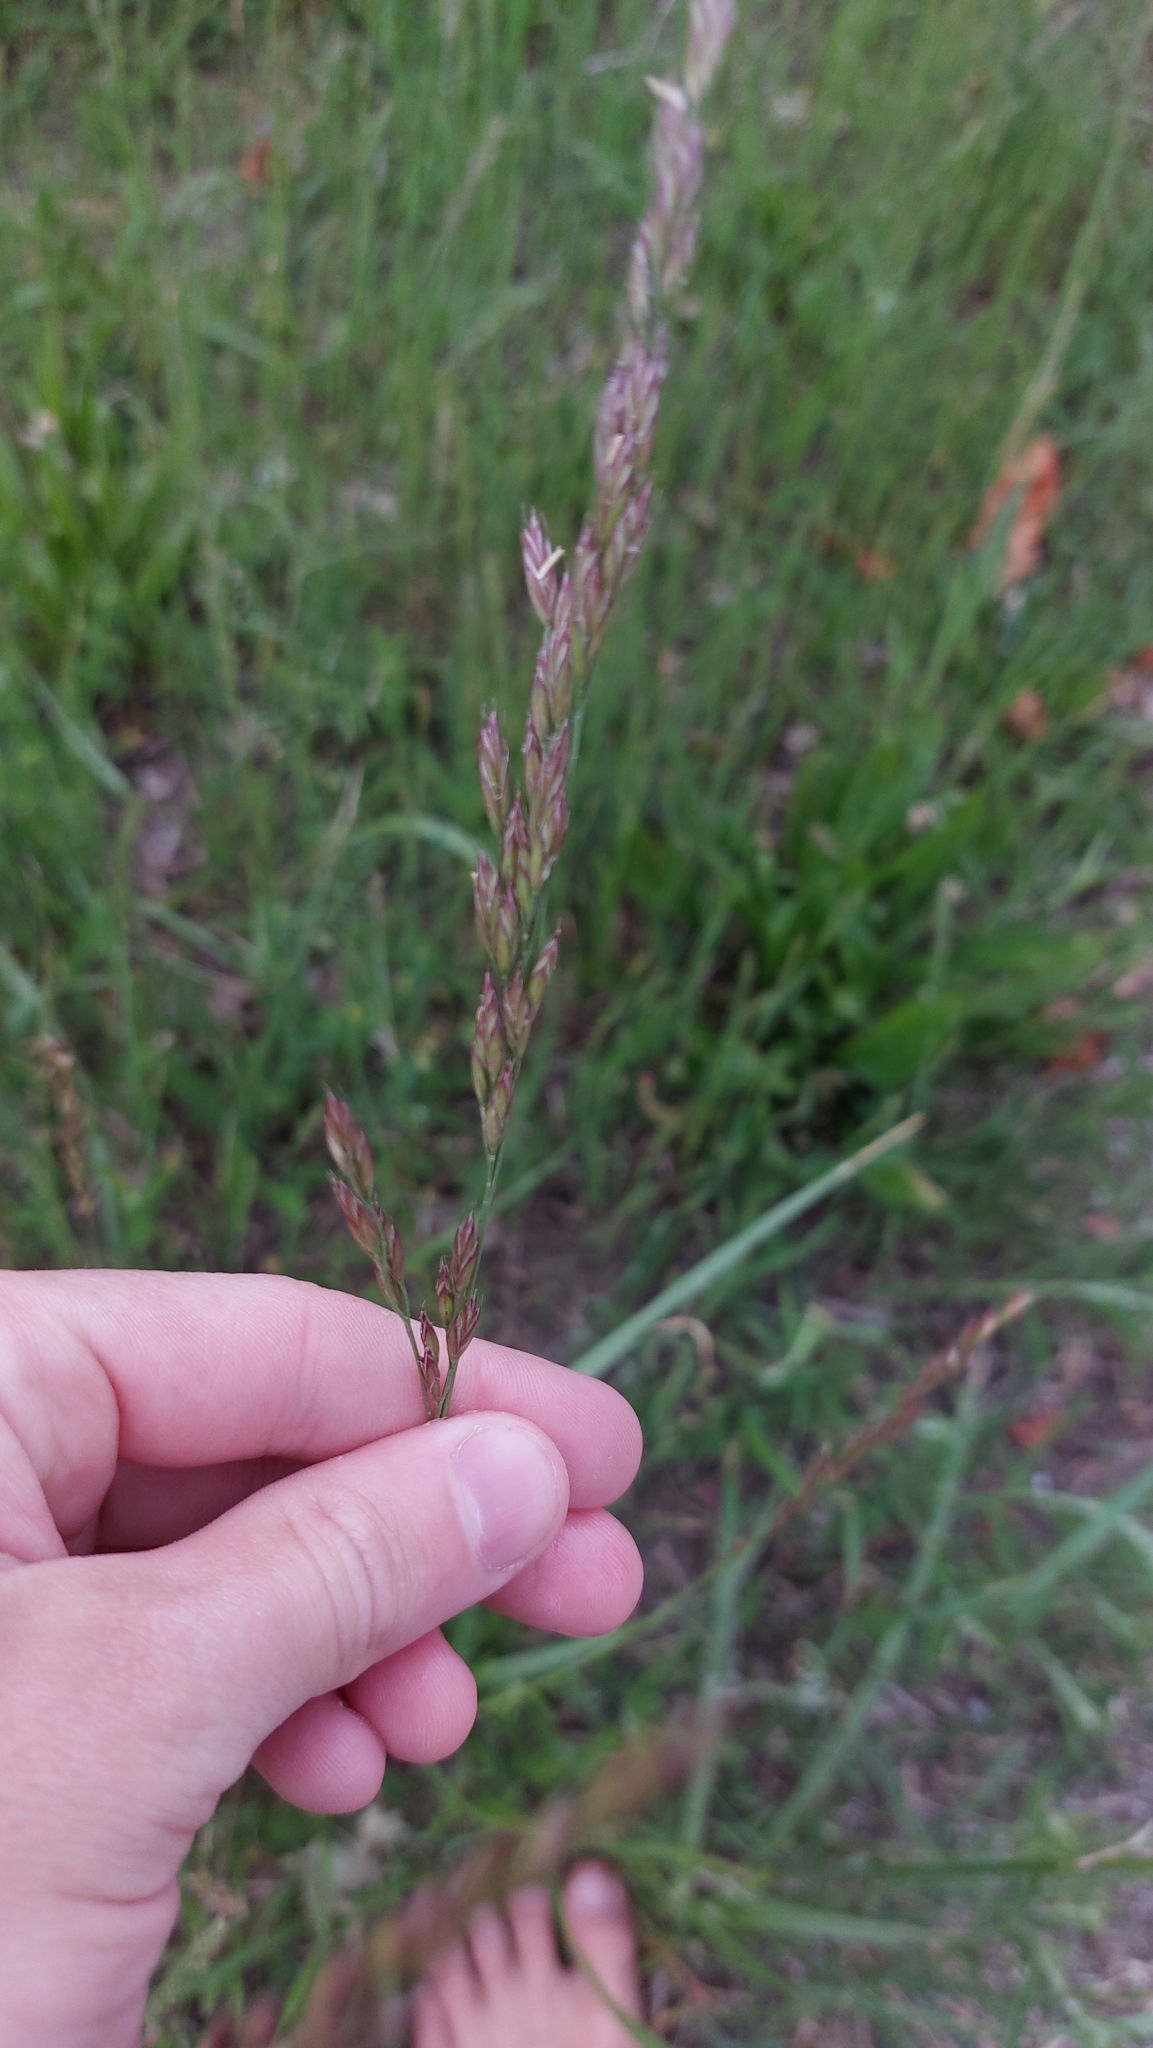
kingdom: Plantae
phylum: Tracheophyta
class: Liliopsida
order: Poales
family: Poaceae
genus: Lolium
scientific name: Lolium arundinaceum
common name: Reed fescue
